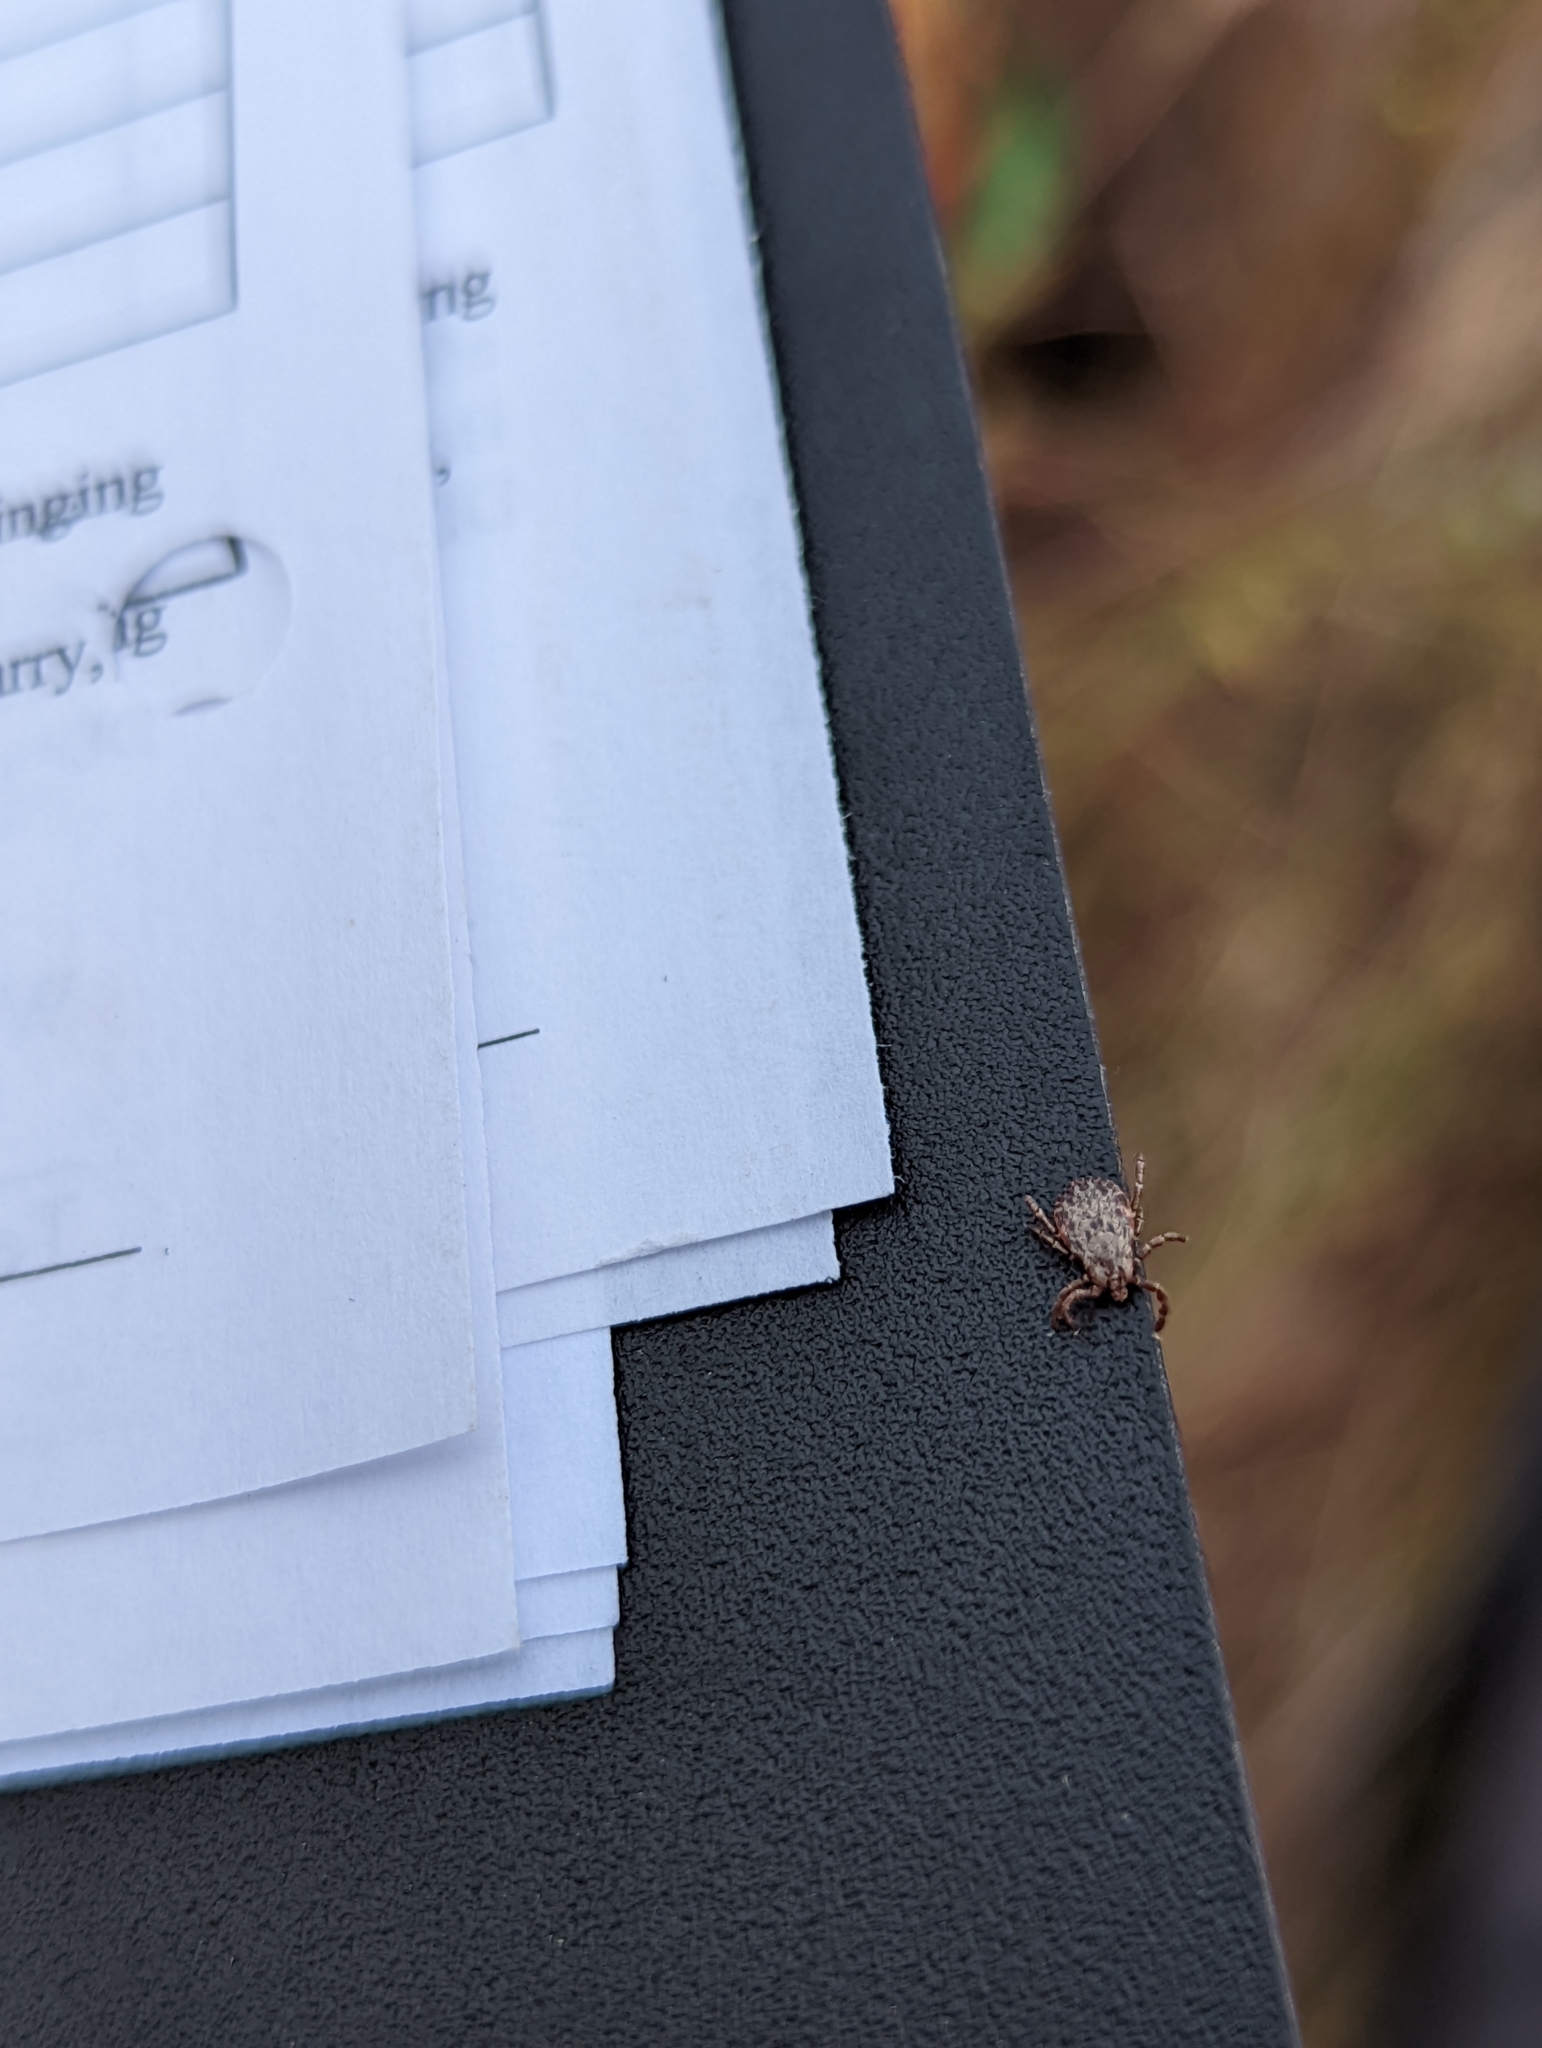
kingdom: Animalia
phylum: Arthropoda
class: Arachnida
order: Ixodida
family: Ixodidae
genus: Dermacentor
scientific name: Dermacentor occidentalis
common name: Net tick
